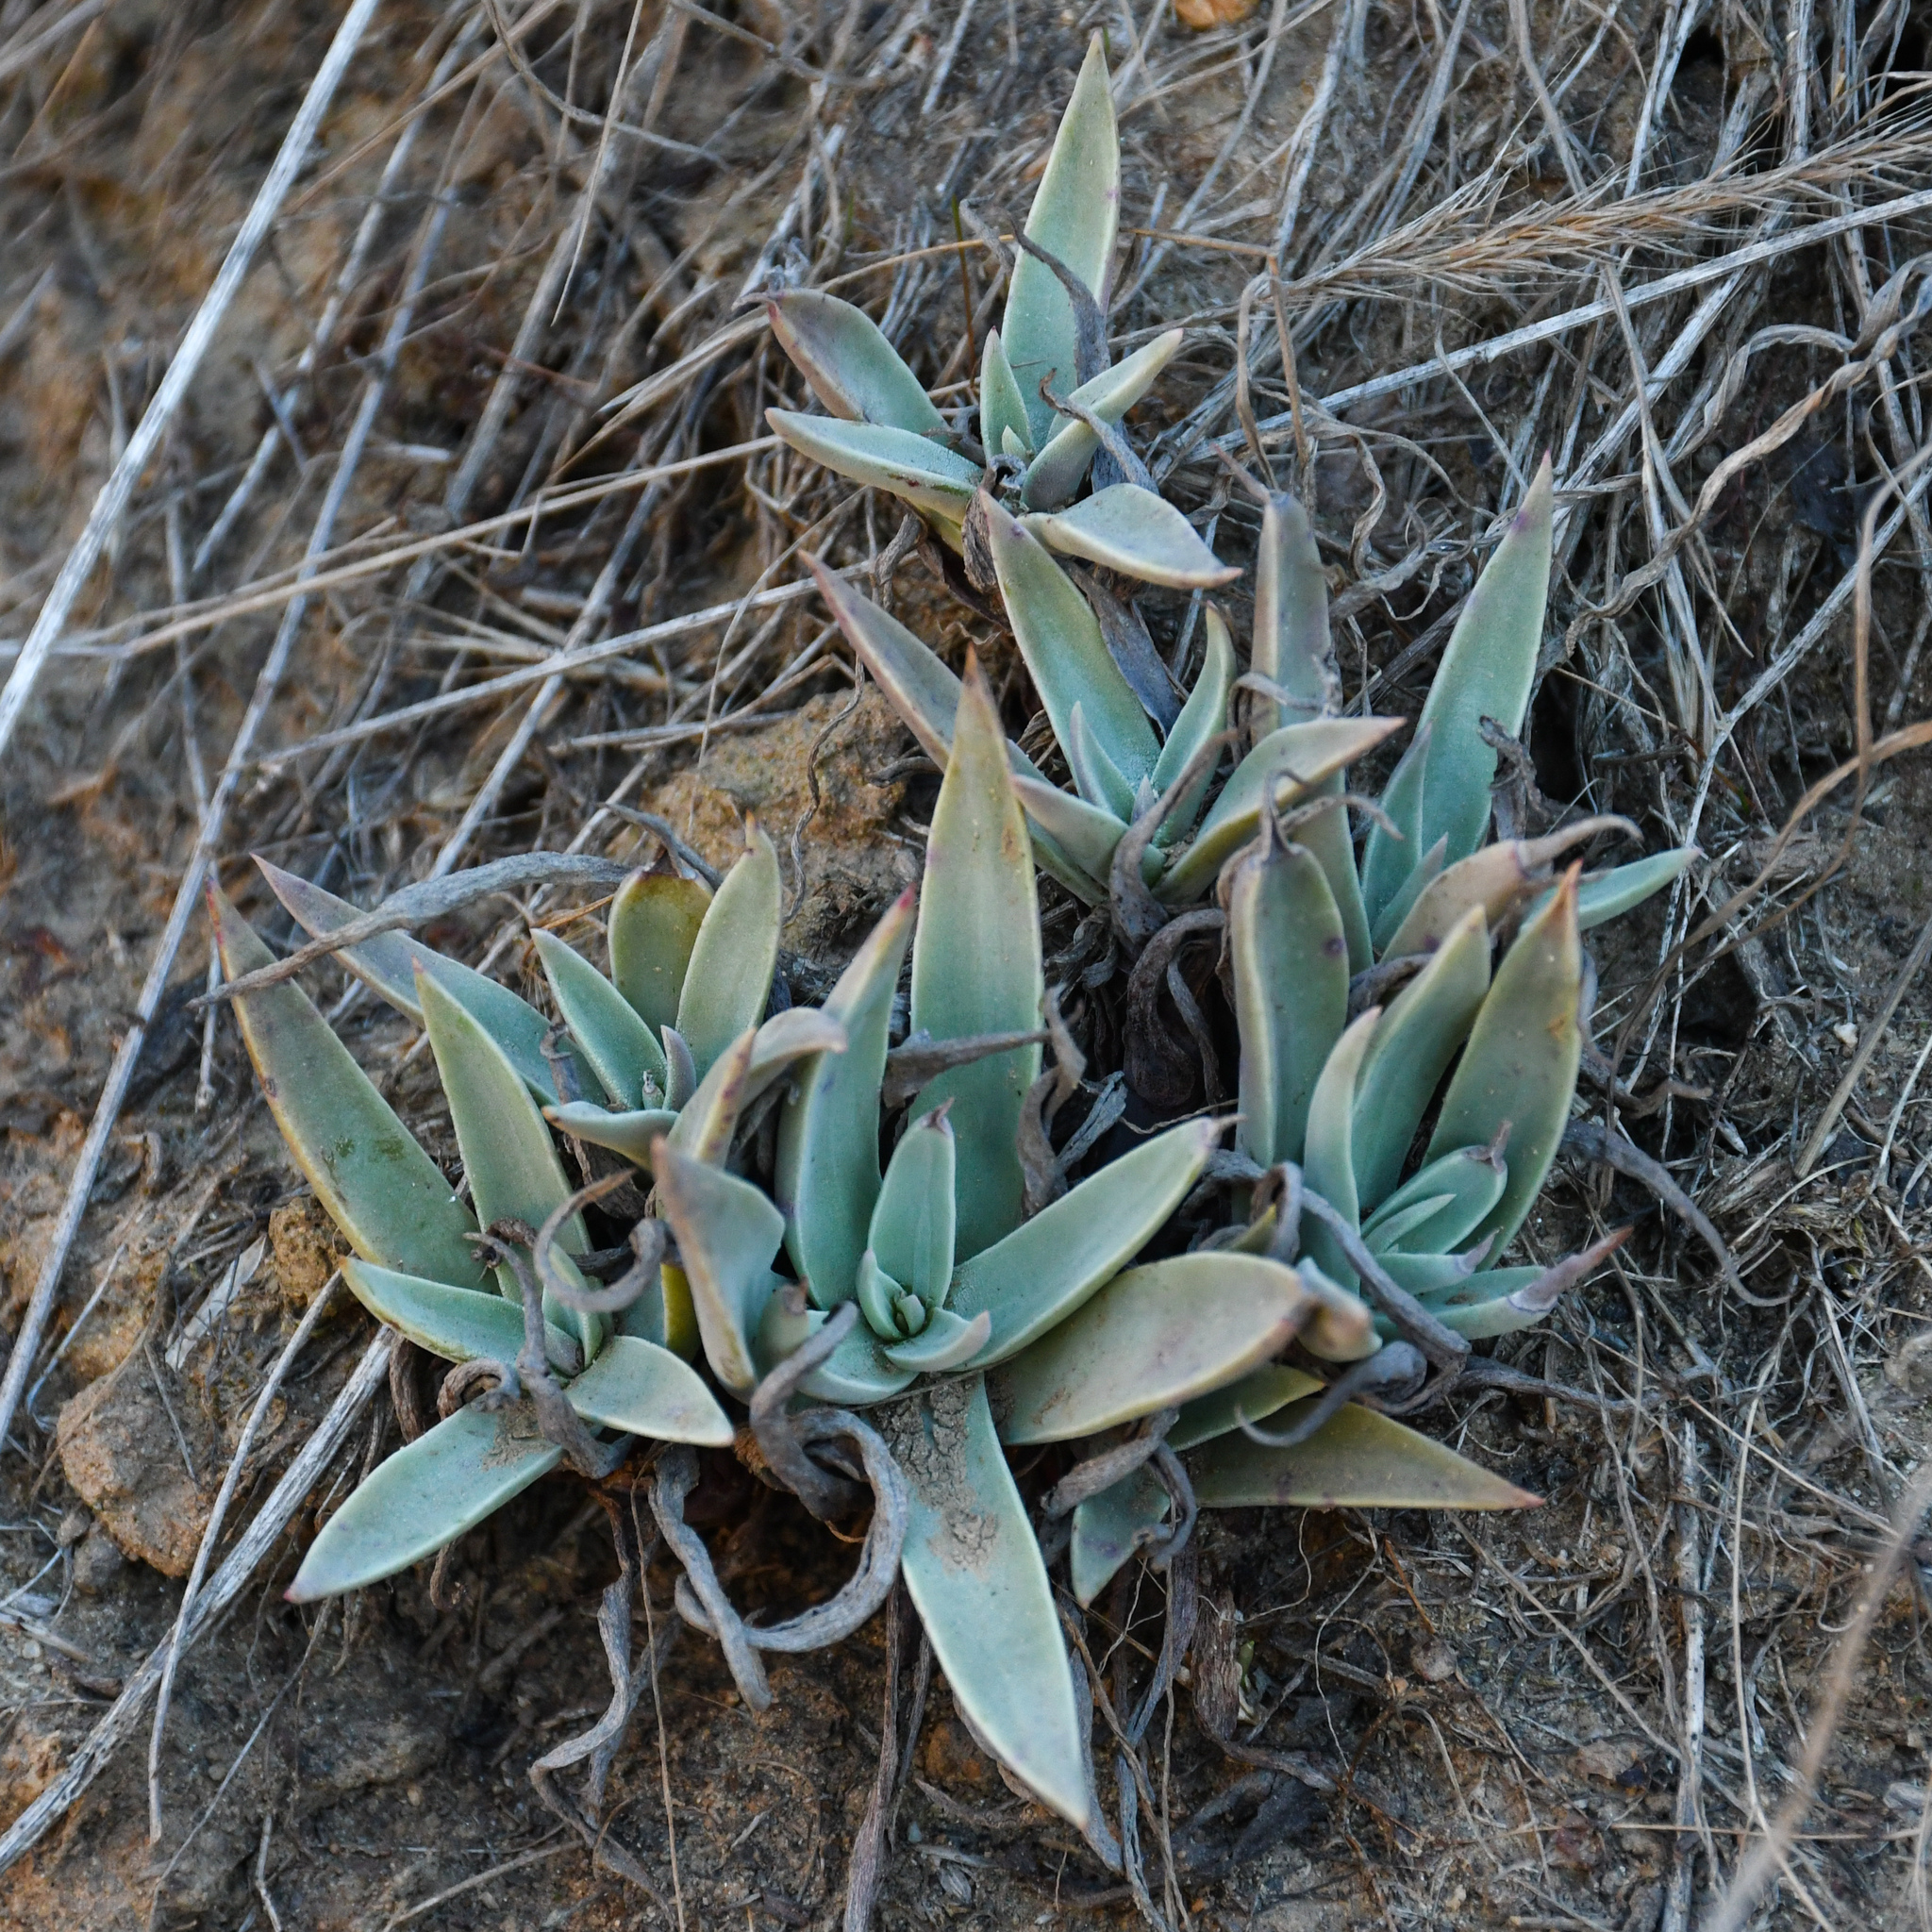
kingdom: Plantae
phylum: Tracheophyta
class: Magnoliopsida
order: Saxifragales
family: Crassulaceae
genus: Dudleya
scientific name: Dudleya lanceolata
